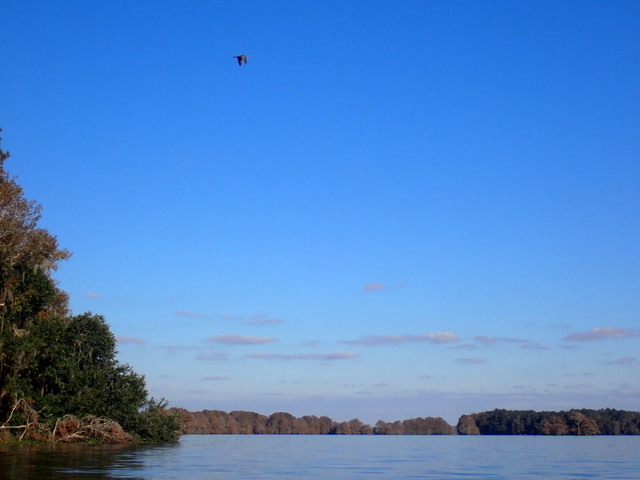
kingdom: Animalia
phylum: Chordata
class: Aves
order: Suliformes
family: Anhingidae
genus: Anhinga
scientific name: Anhinga anhinga
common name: Anhinga
